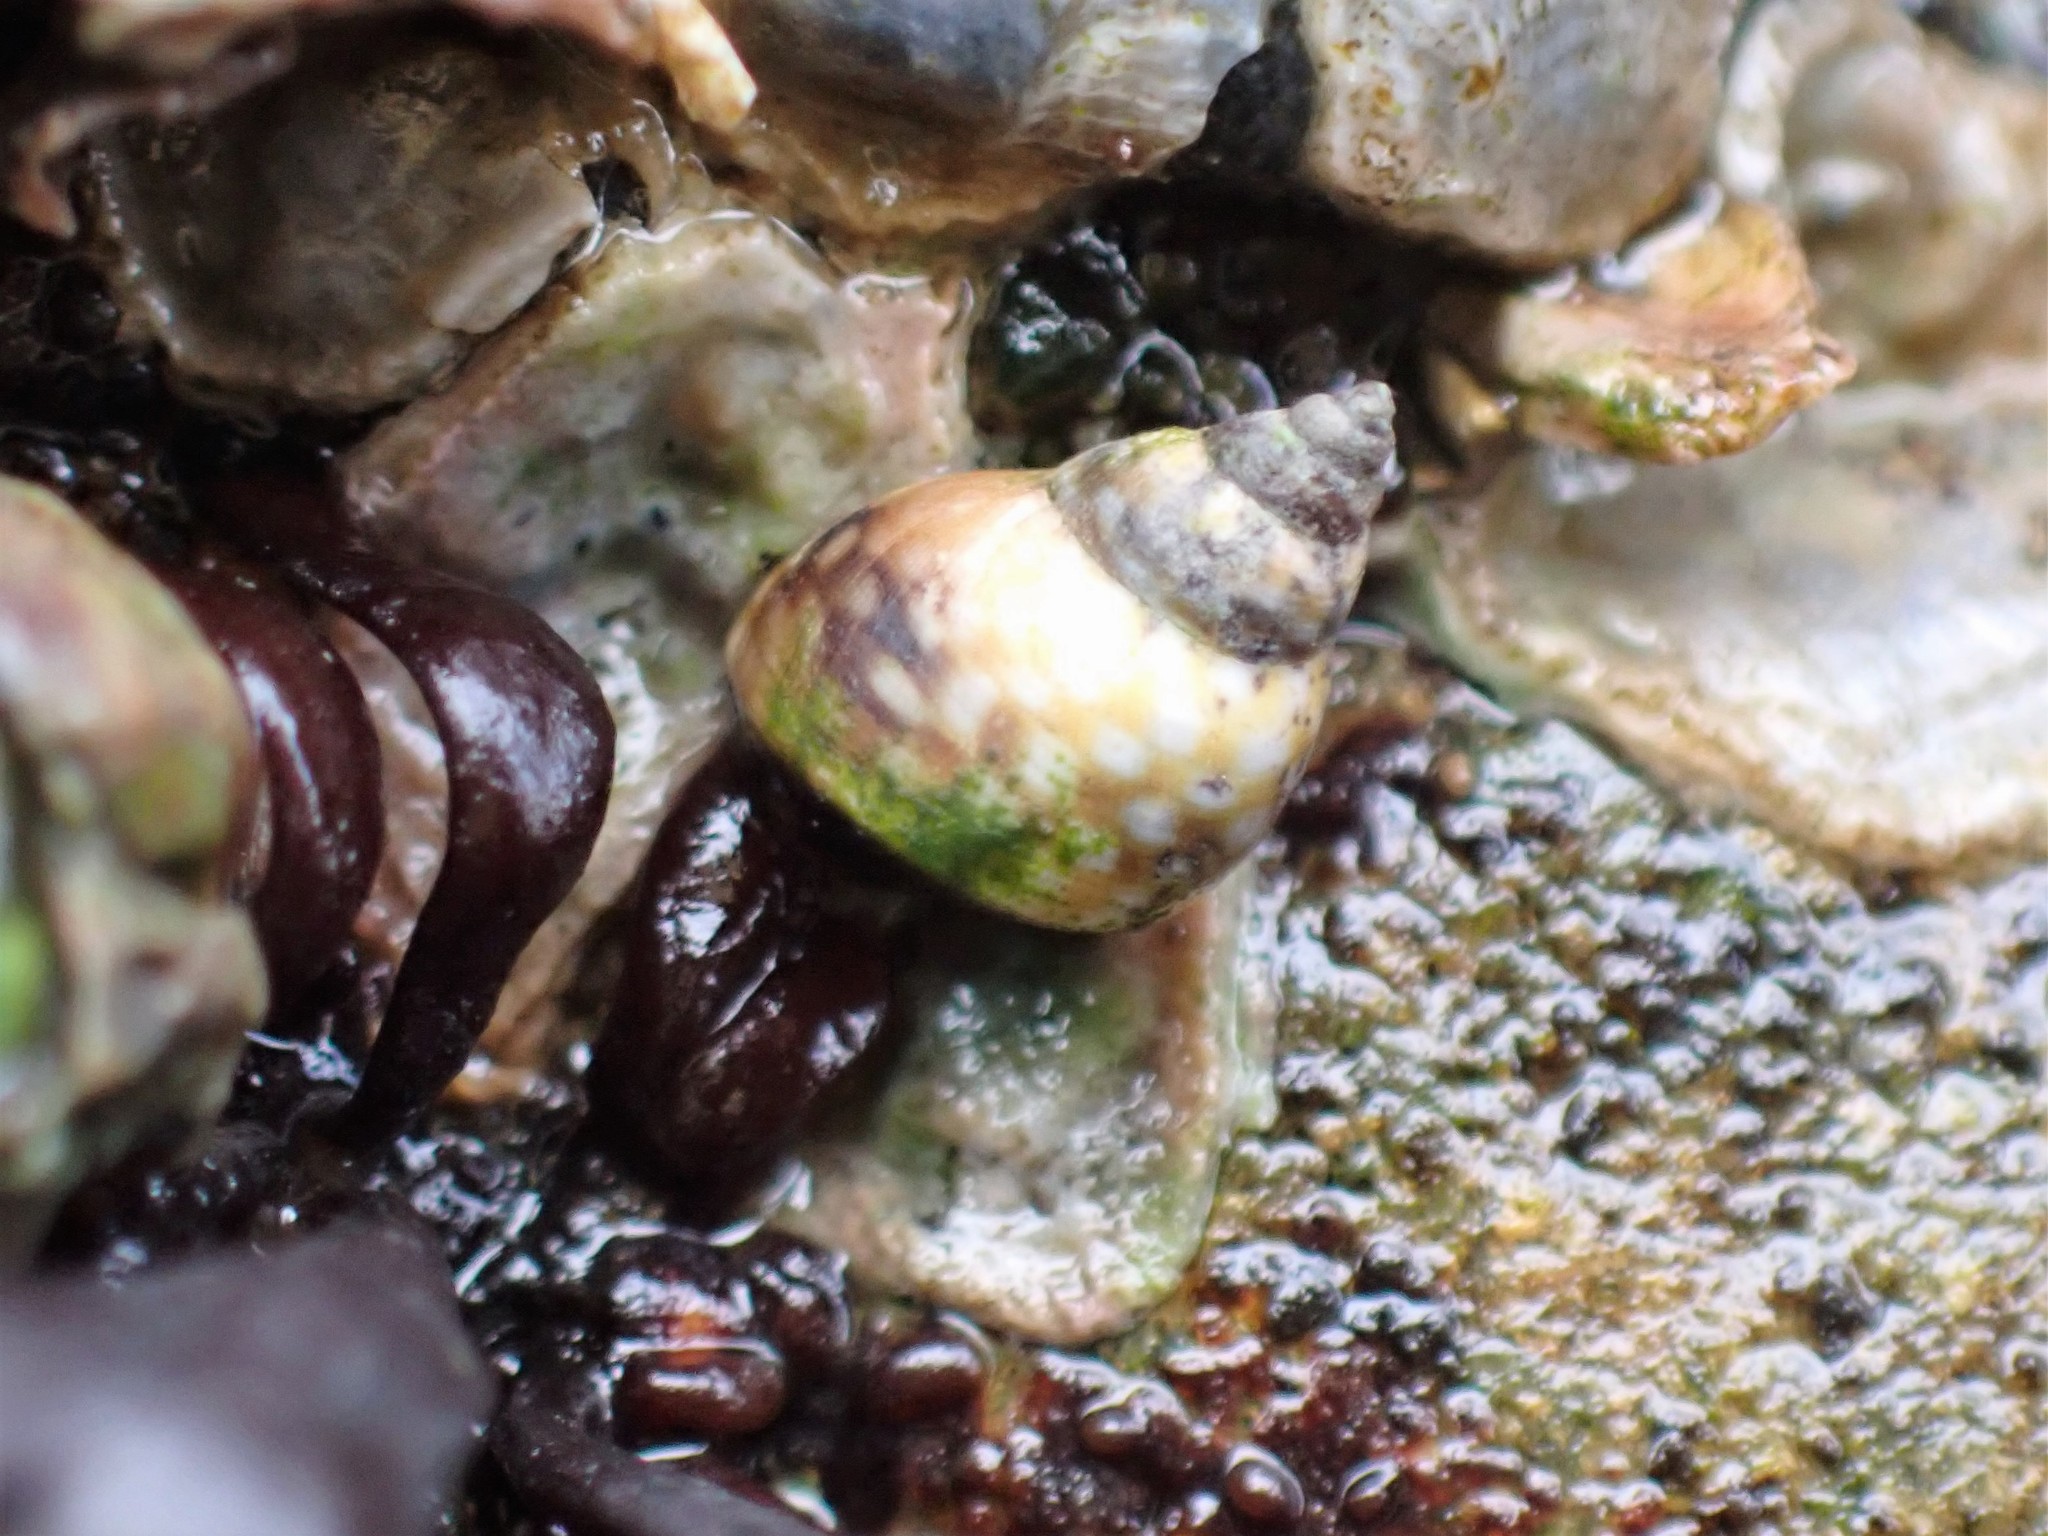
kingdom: Animalia
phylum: Mollusca
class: Gastropoda
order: Littorinimorpha
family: Littorinidae
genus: Littorina
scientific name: Littorina scutulata
